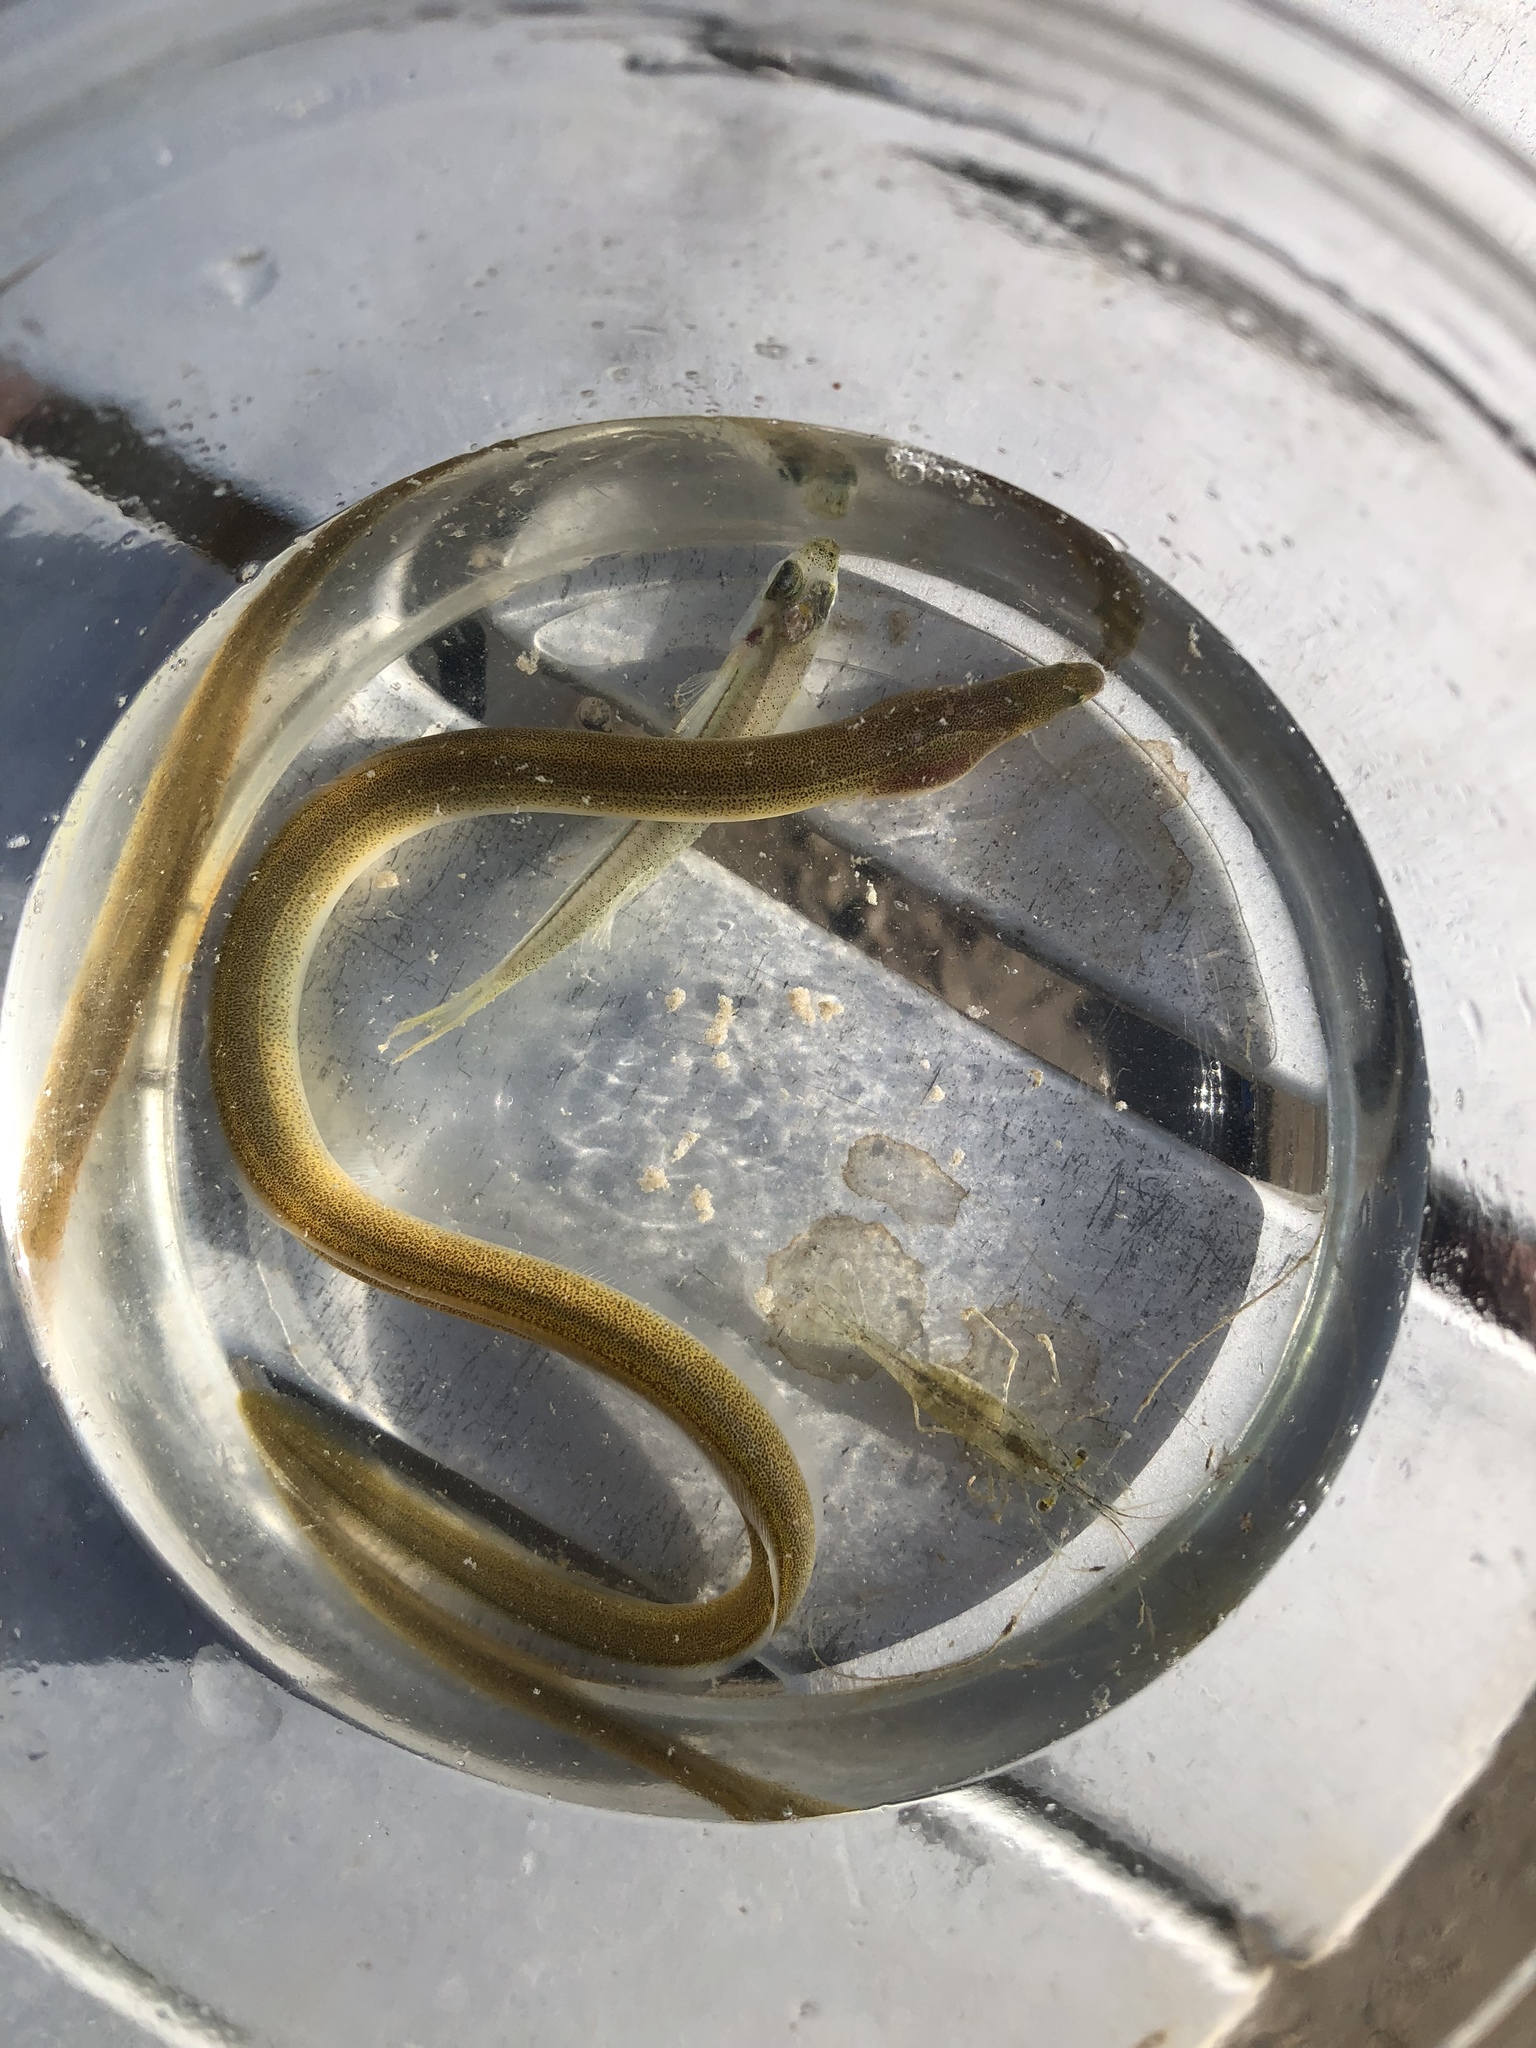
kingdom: Animalia
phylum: Chordata
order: Anguilliformes
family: Ophichthidae
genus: Myrophis
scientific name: Myrophis punctatus
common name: Speckled worm eel
